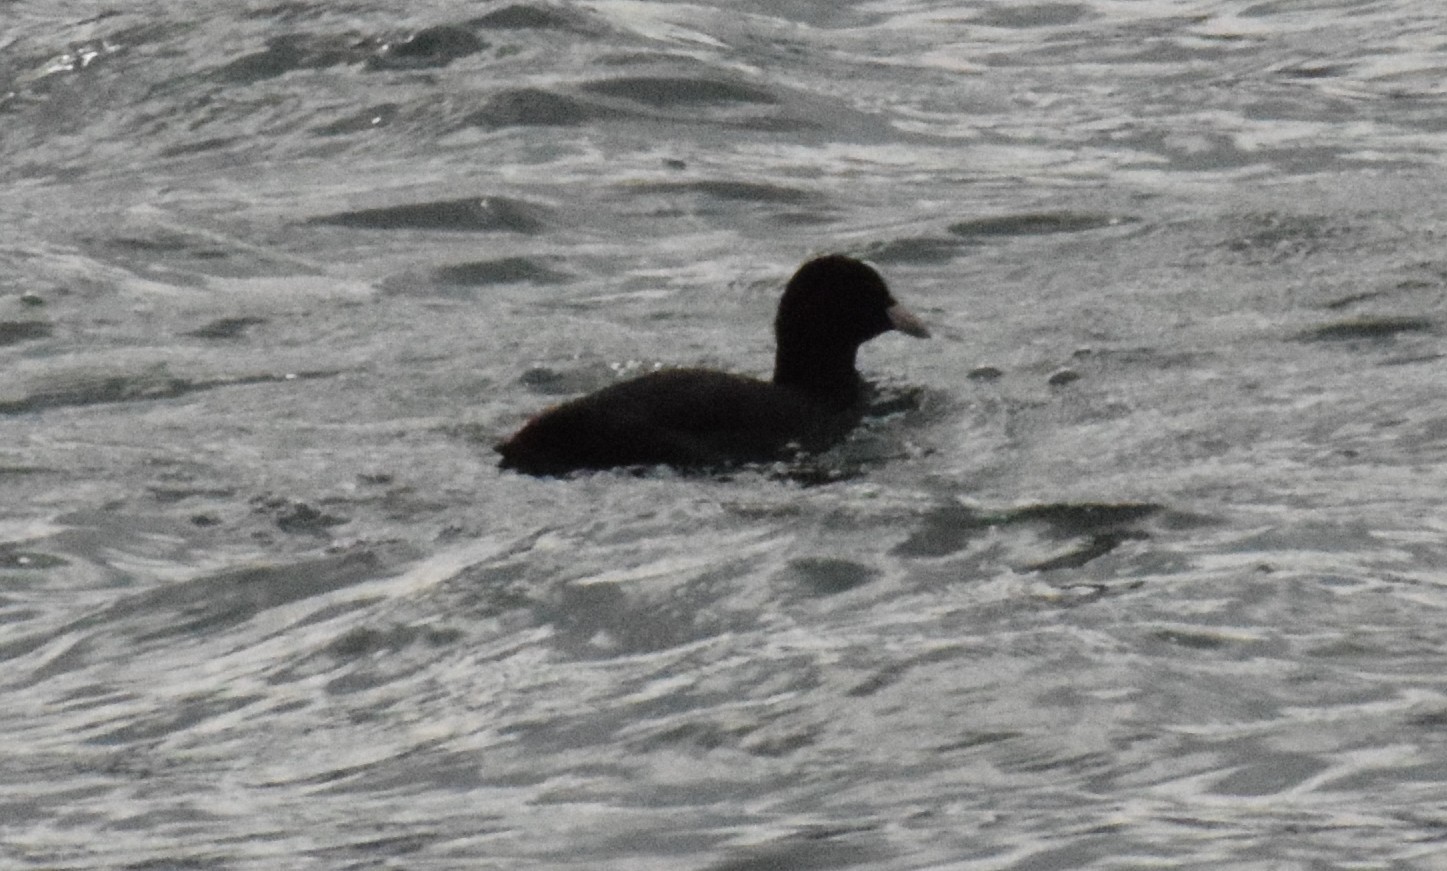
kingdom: Animalia
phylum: Chordata
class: Aves
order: Gruiformes
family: Rallidae
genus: Fulica
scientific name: Fulica atra
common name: Eurasian coot
